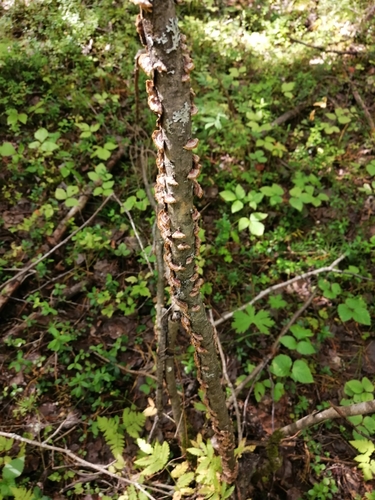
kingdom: Fungi
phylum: Basidiomycota
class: Agaricomycetes
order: Hymenochaetales
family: Hymenochaetaceae
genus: Hydnoporia
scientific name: Hydnoporia tabacina
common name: Willow glue
